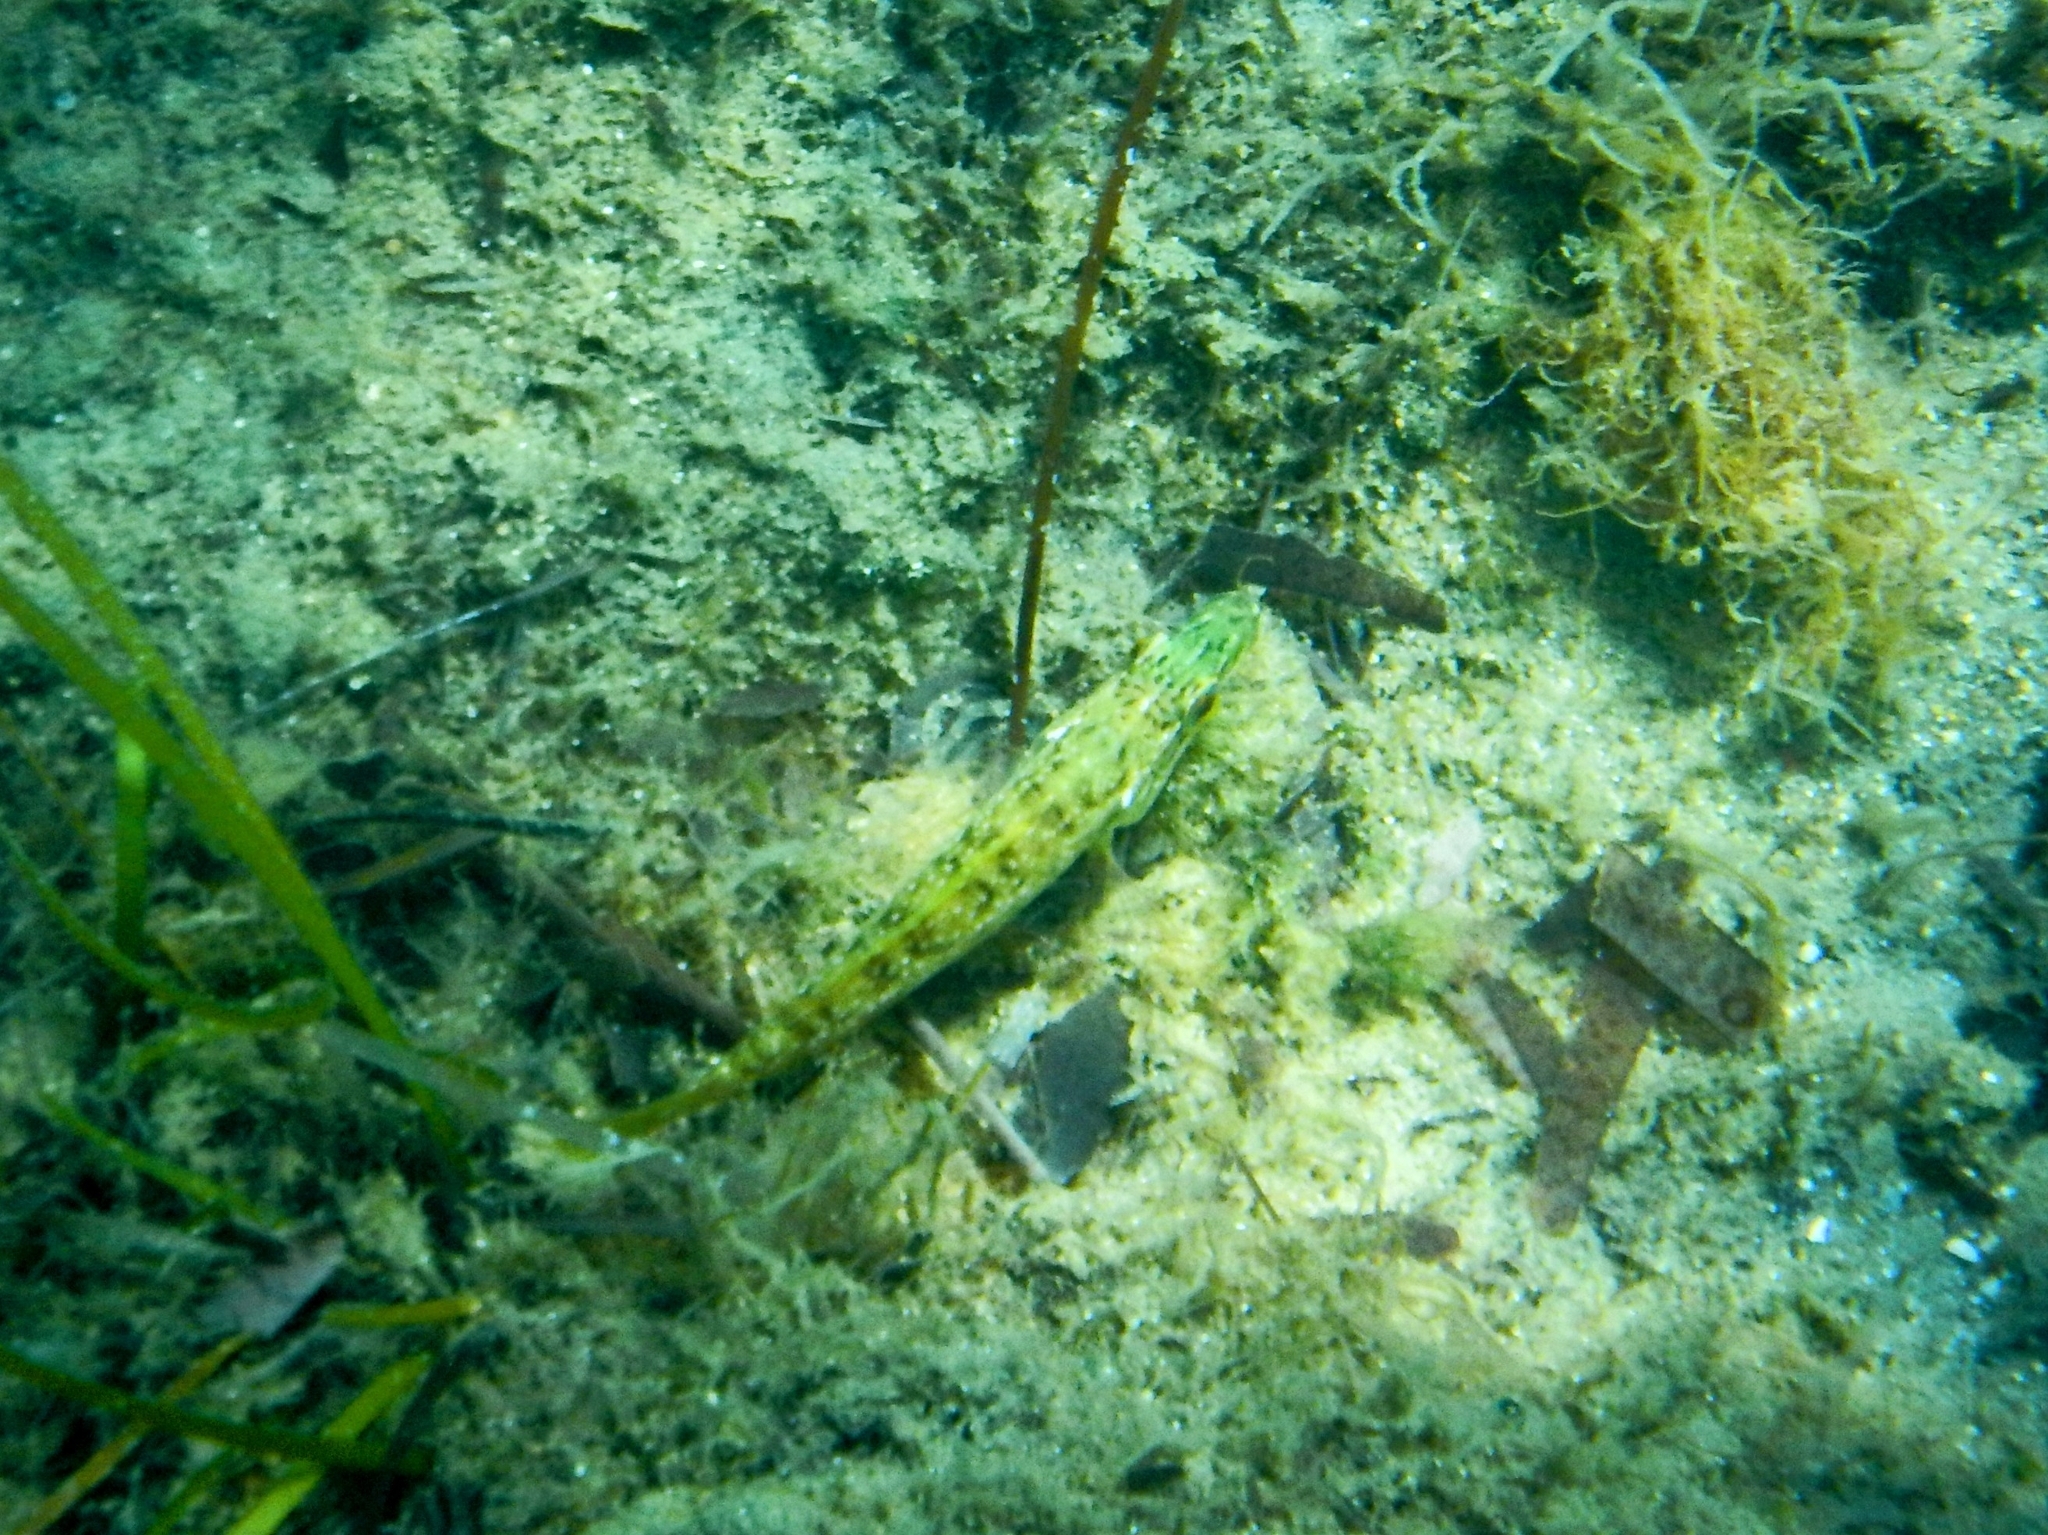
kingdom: Animalia
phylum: Chordata
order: Perciformes
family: Labridae
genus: Labrus
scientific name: Labrus
